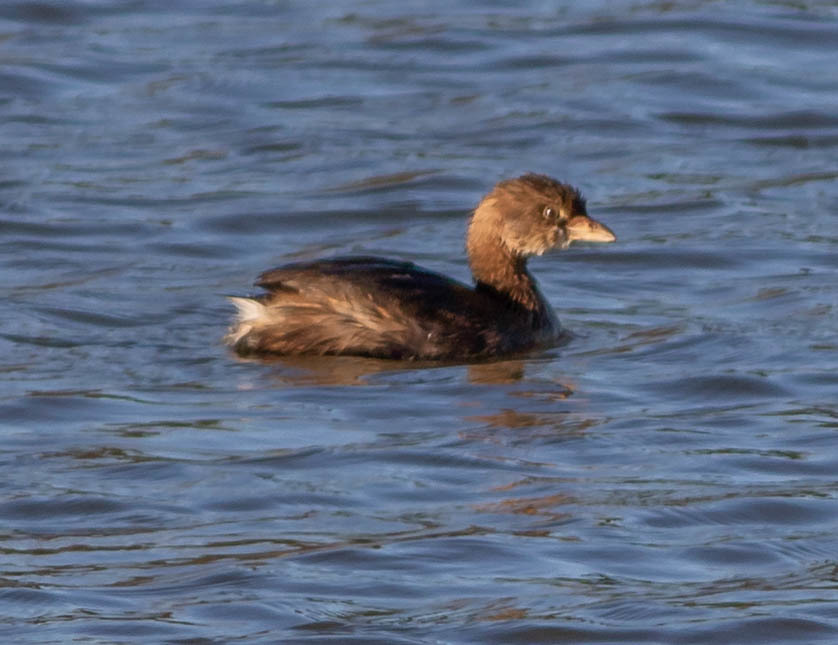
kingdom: Animalia
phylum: Chordata
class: Aves
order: Podicipediformes
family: Podicipedidae
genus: Podilymbus
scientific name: Podilymbus podiceps
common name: Pied-billed grebe
